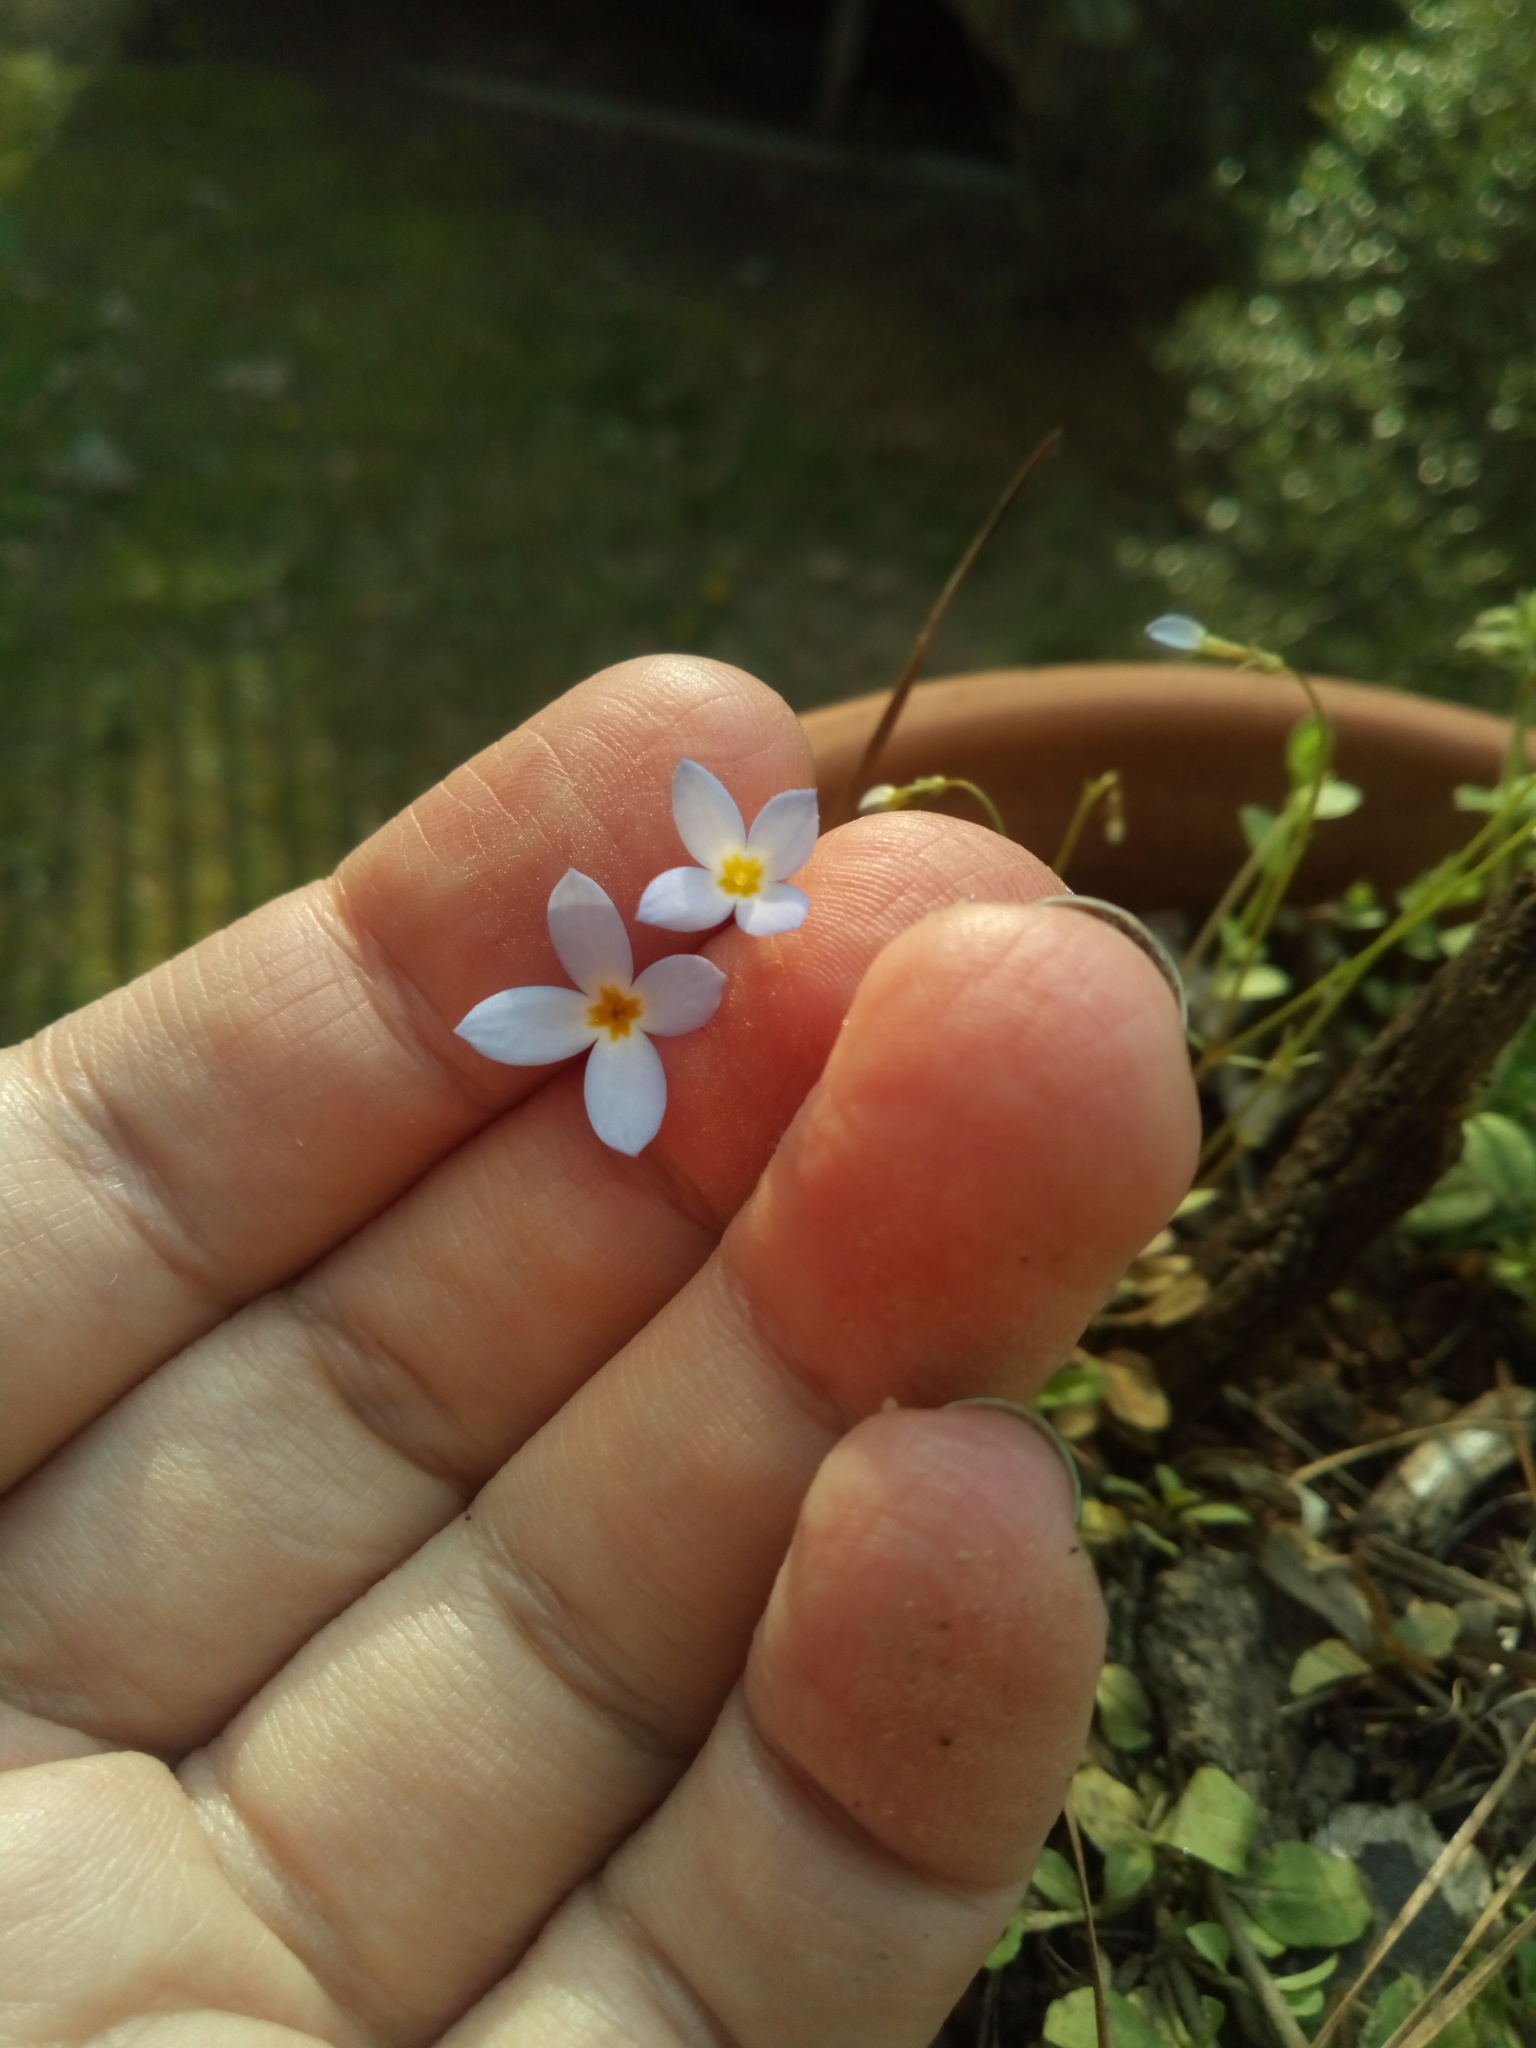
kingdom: Plantae
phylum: Tracheophyta
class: Magnoliopsida
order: Gentianales
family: Rubiaceae
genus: Houstonia
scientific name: Houstonia caerulea
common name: Bluets
